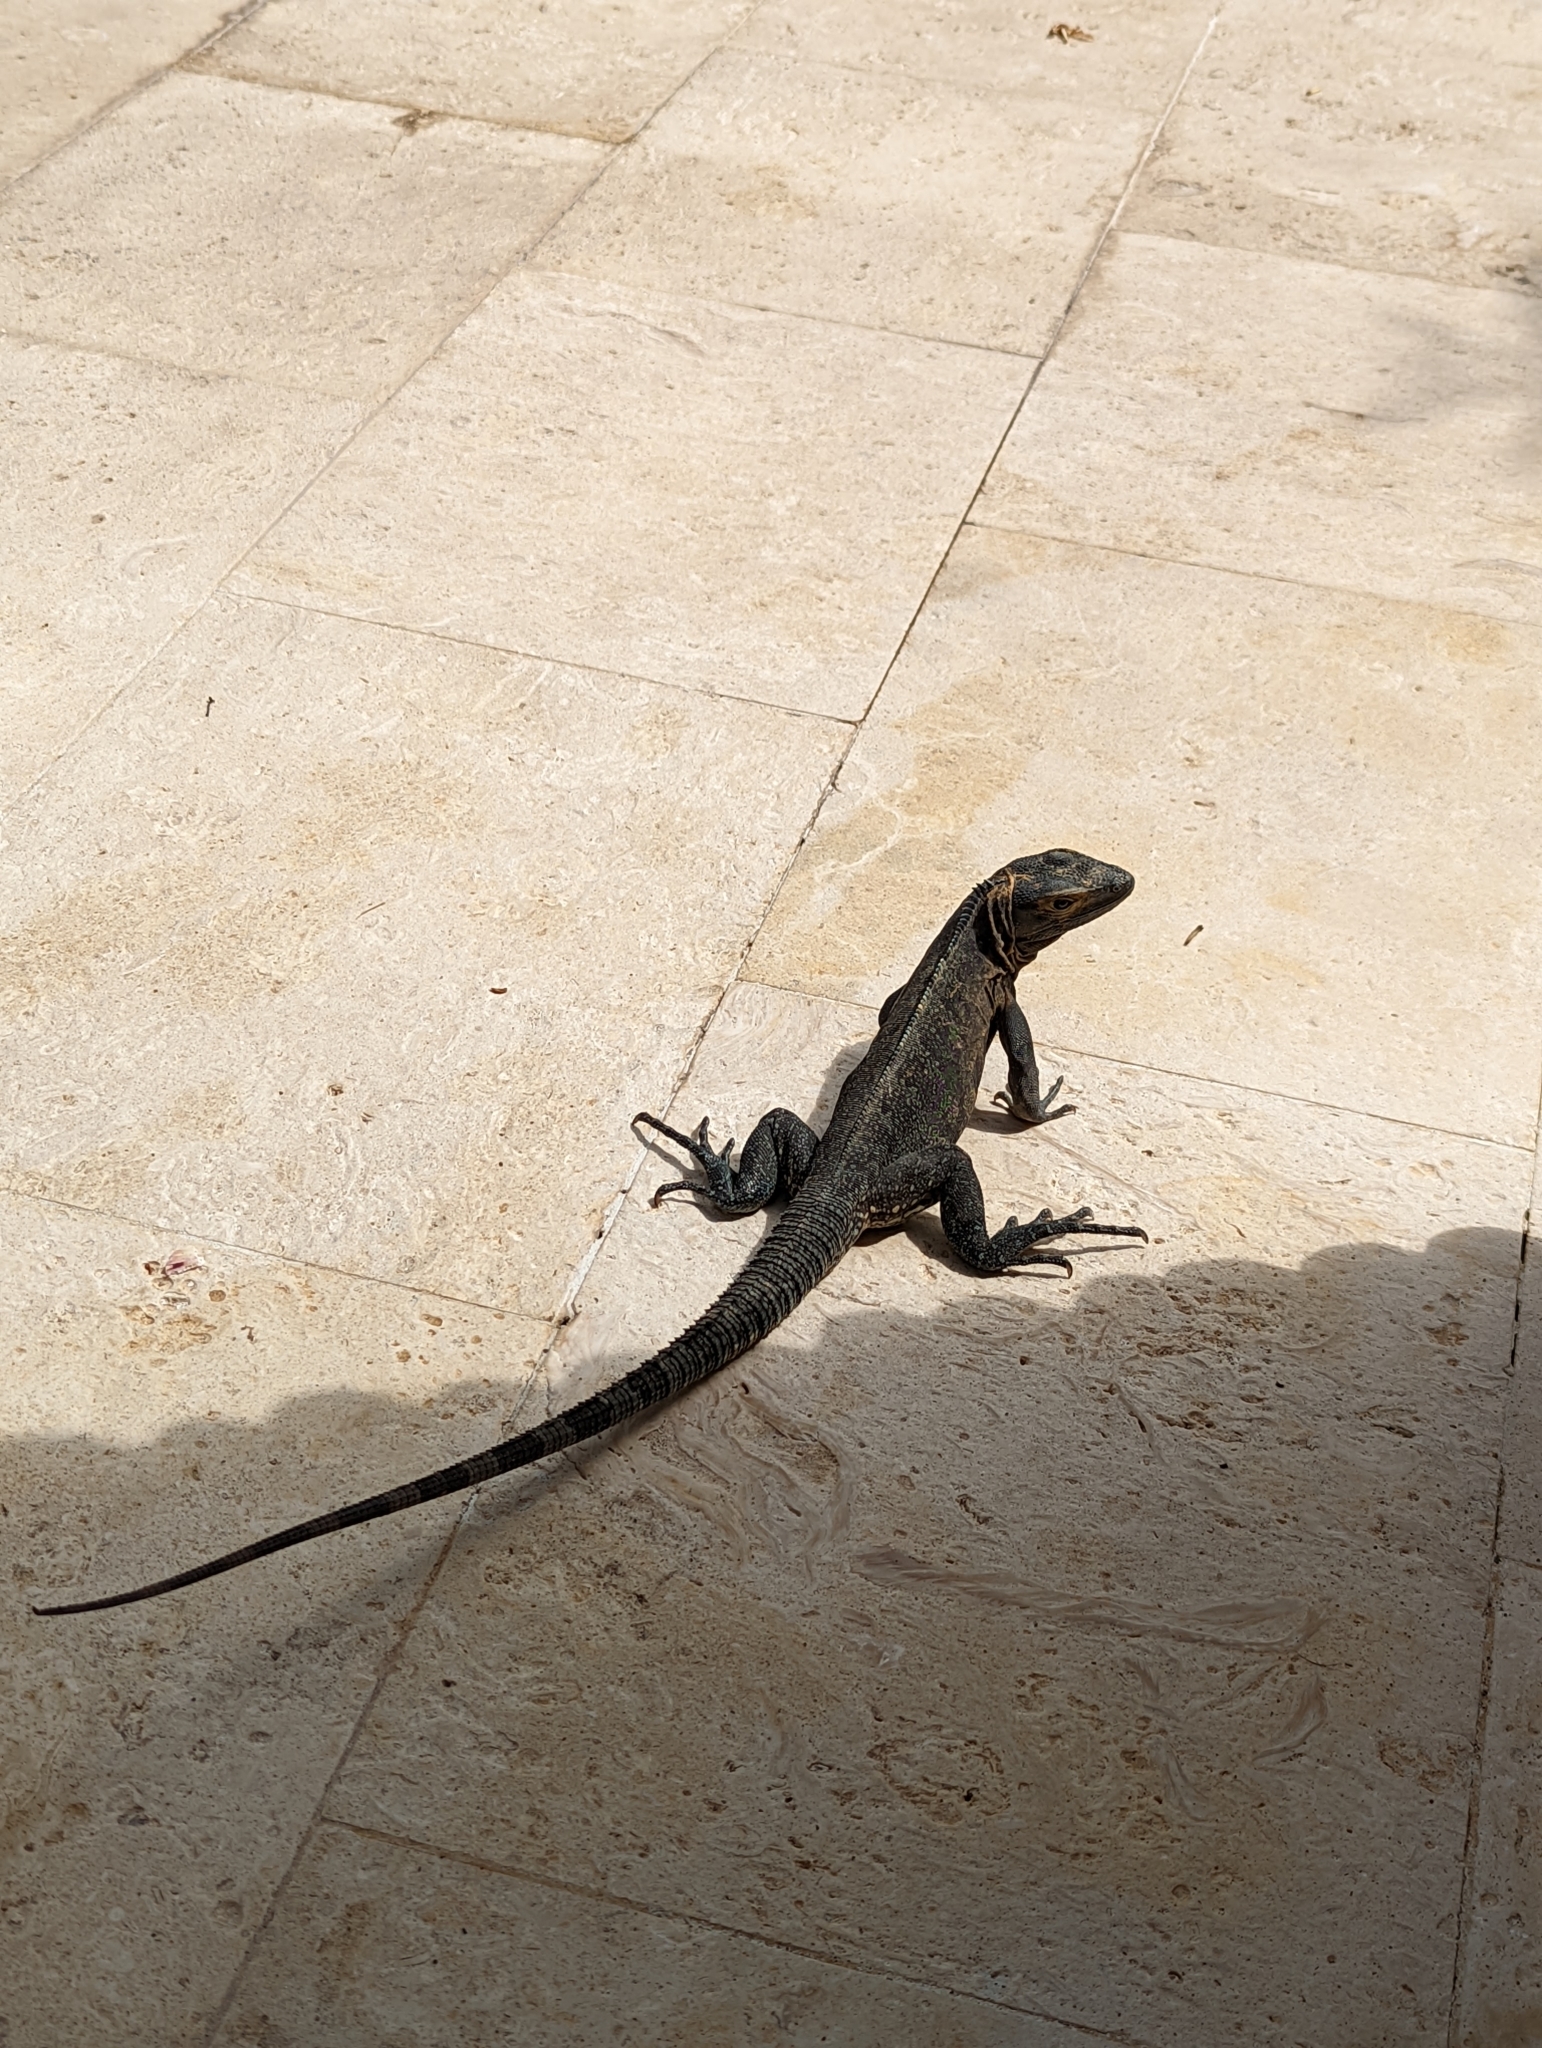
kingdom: Animalia
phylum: Chordata
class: Squamata
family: Iguanidae
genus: Ctenosaura
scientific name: Ctenosaura similis
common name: Black spiny-tailed iguana
